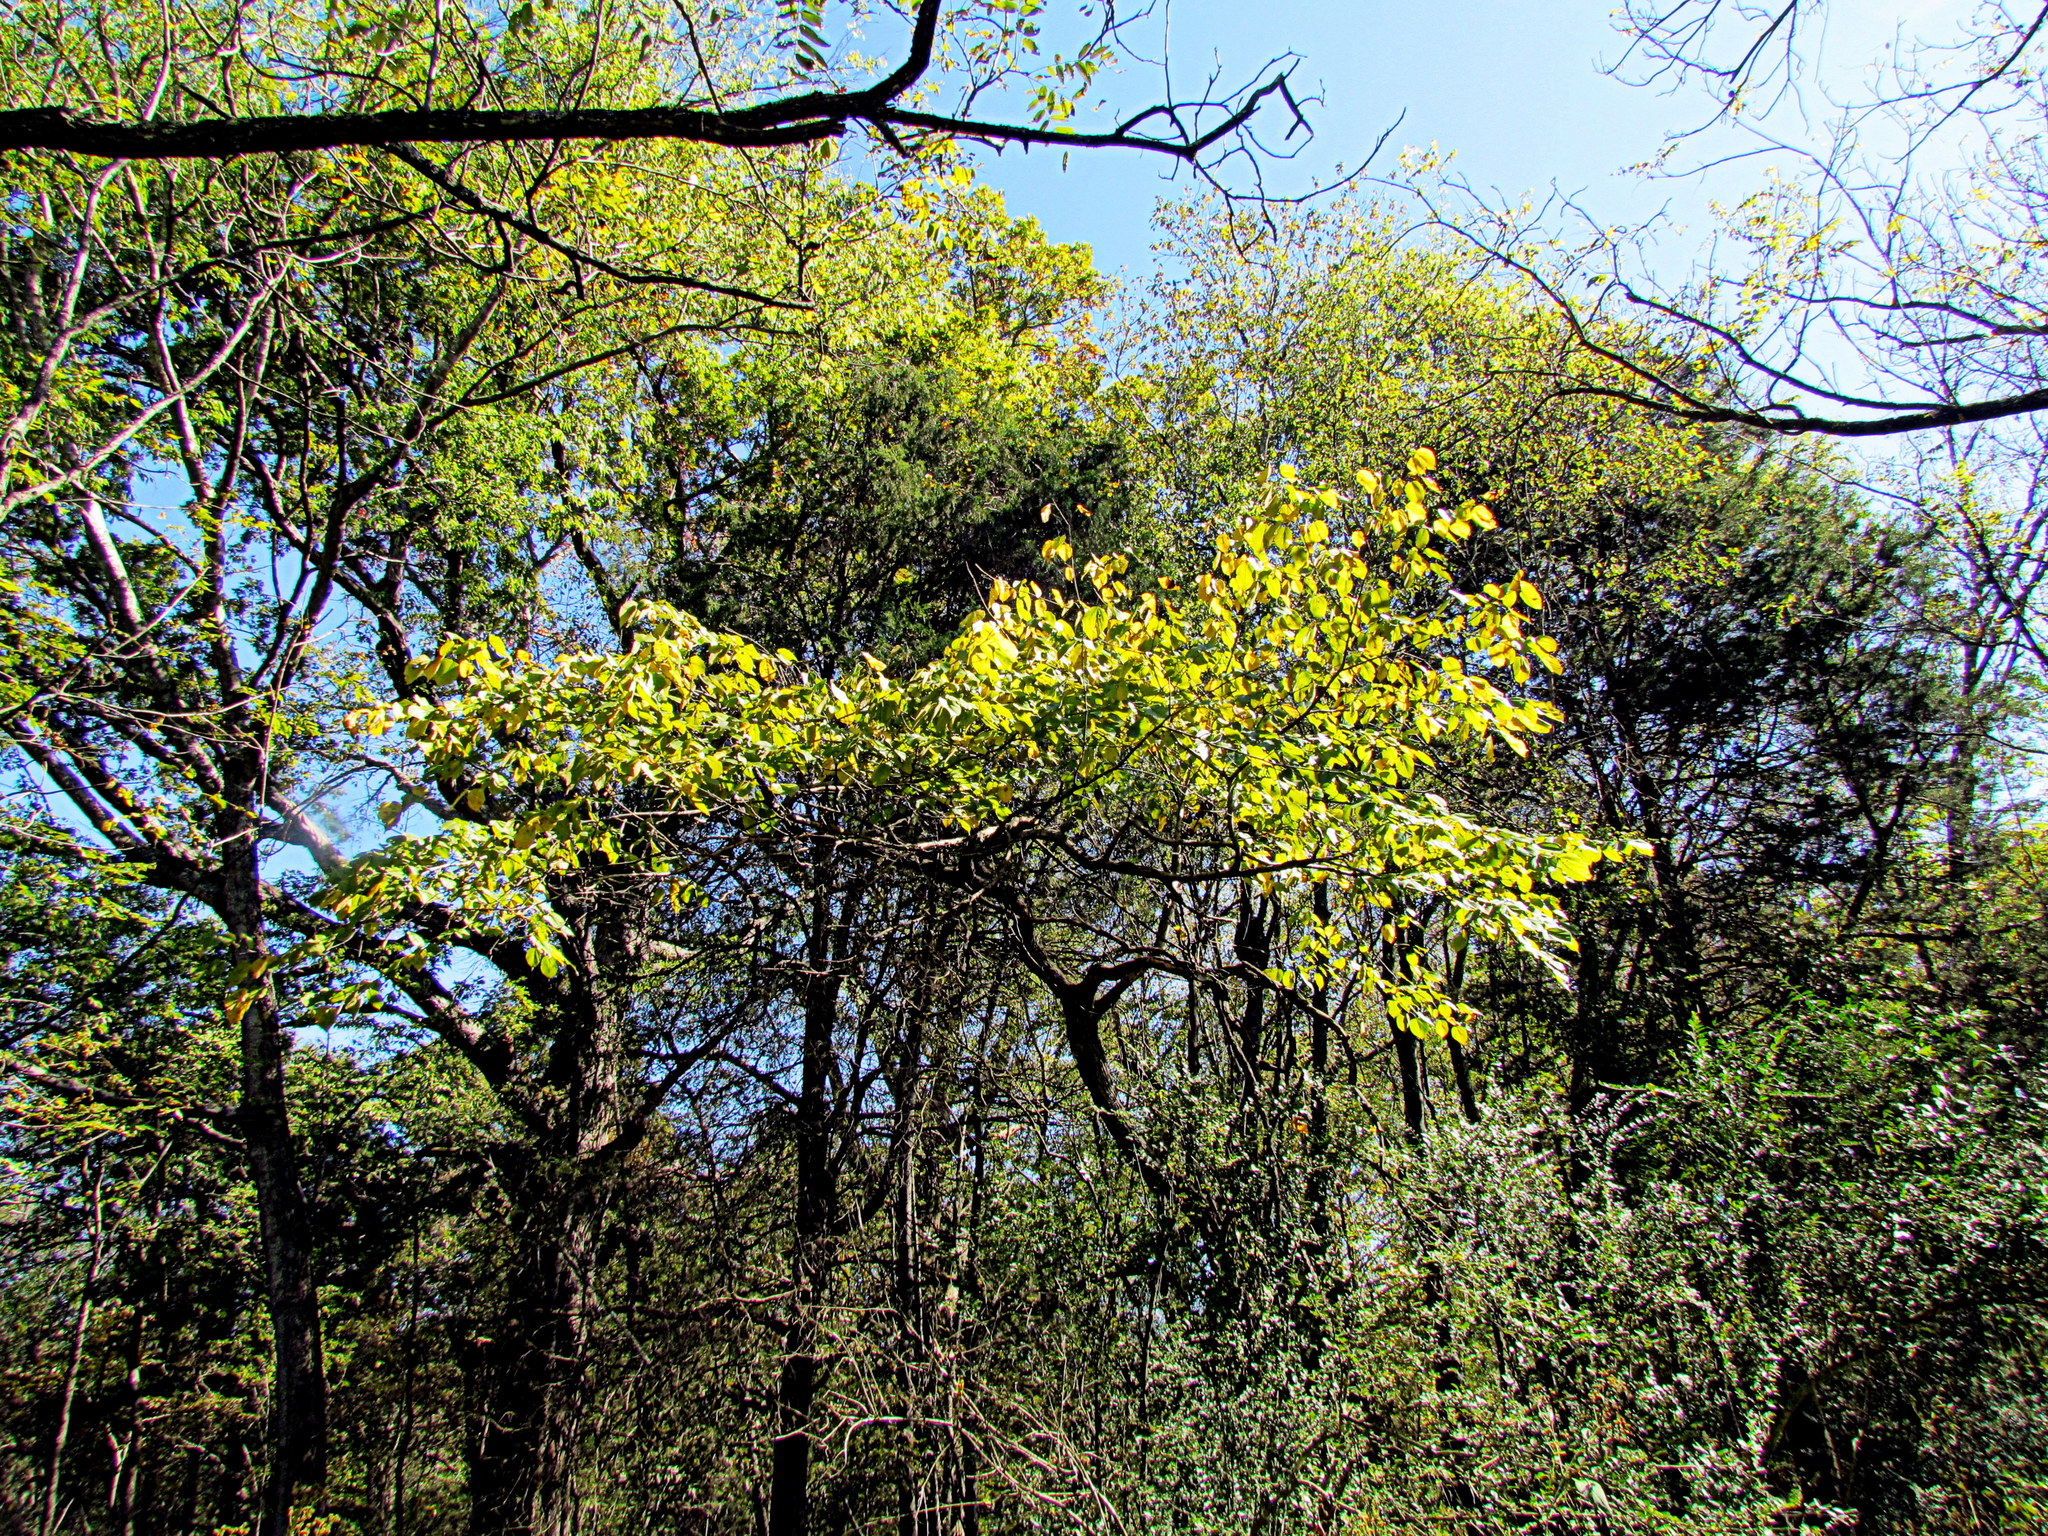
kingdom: Plantae
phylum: Tracheophyta
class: Magnoliopsida
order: Rosales
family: Moraceae
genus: Morus
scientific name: Morus rubra
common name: Red mulberry
